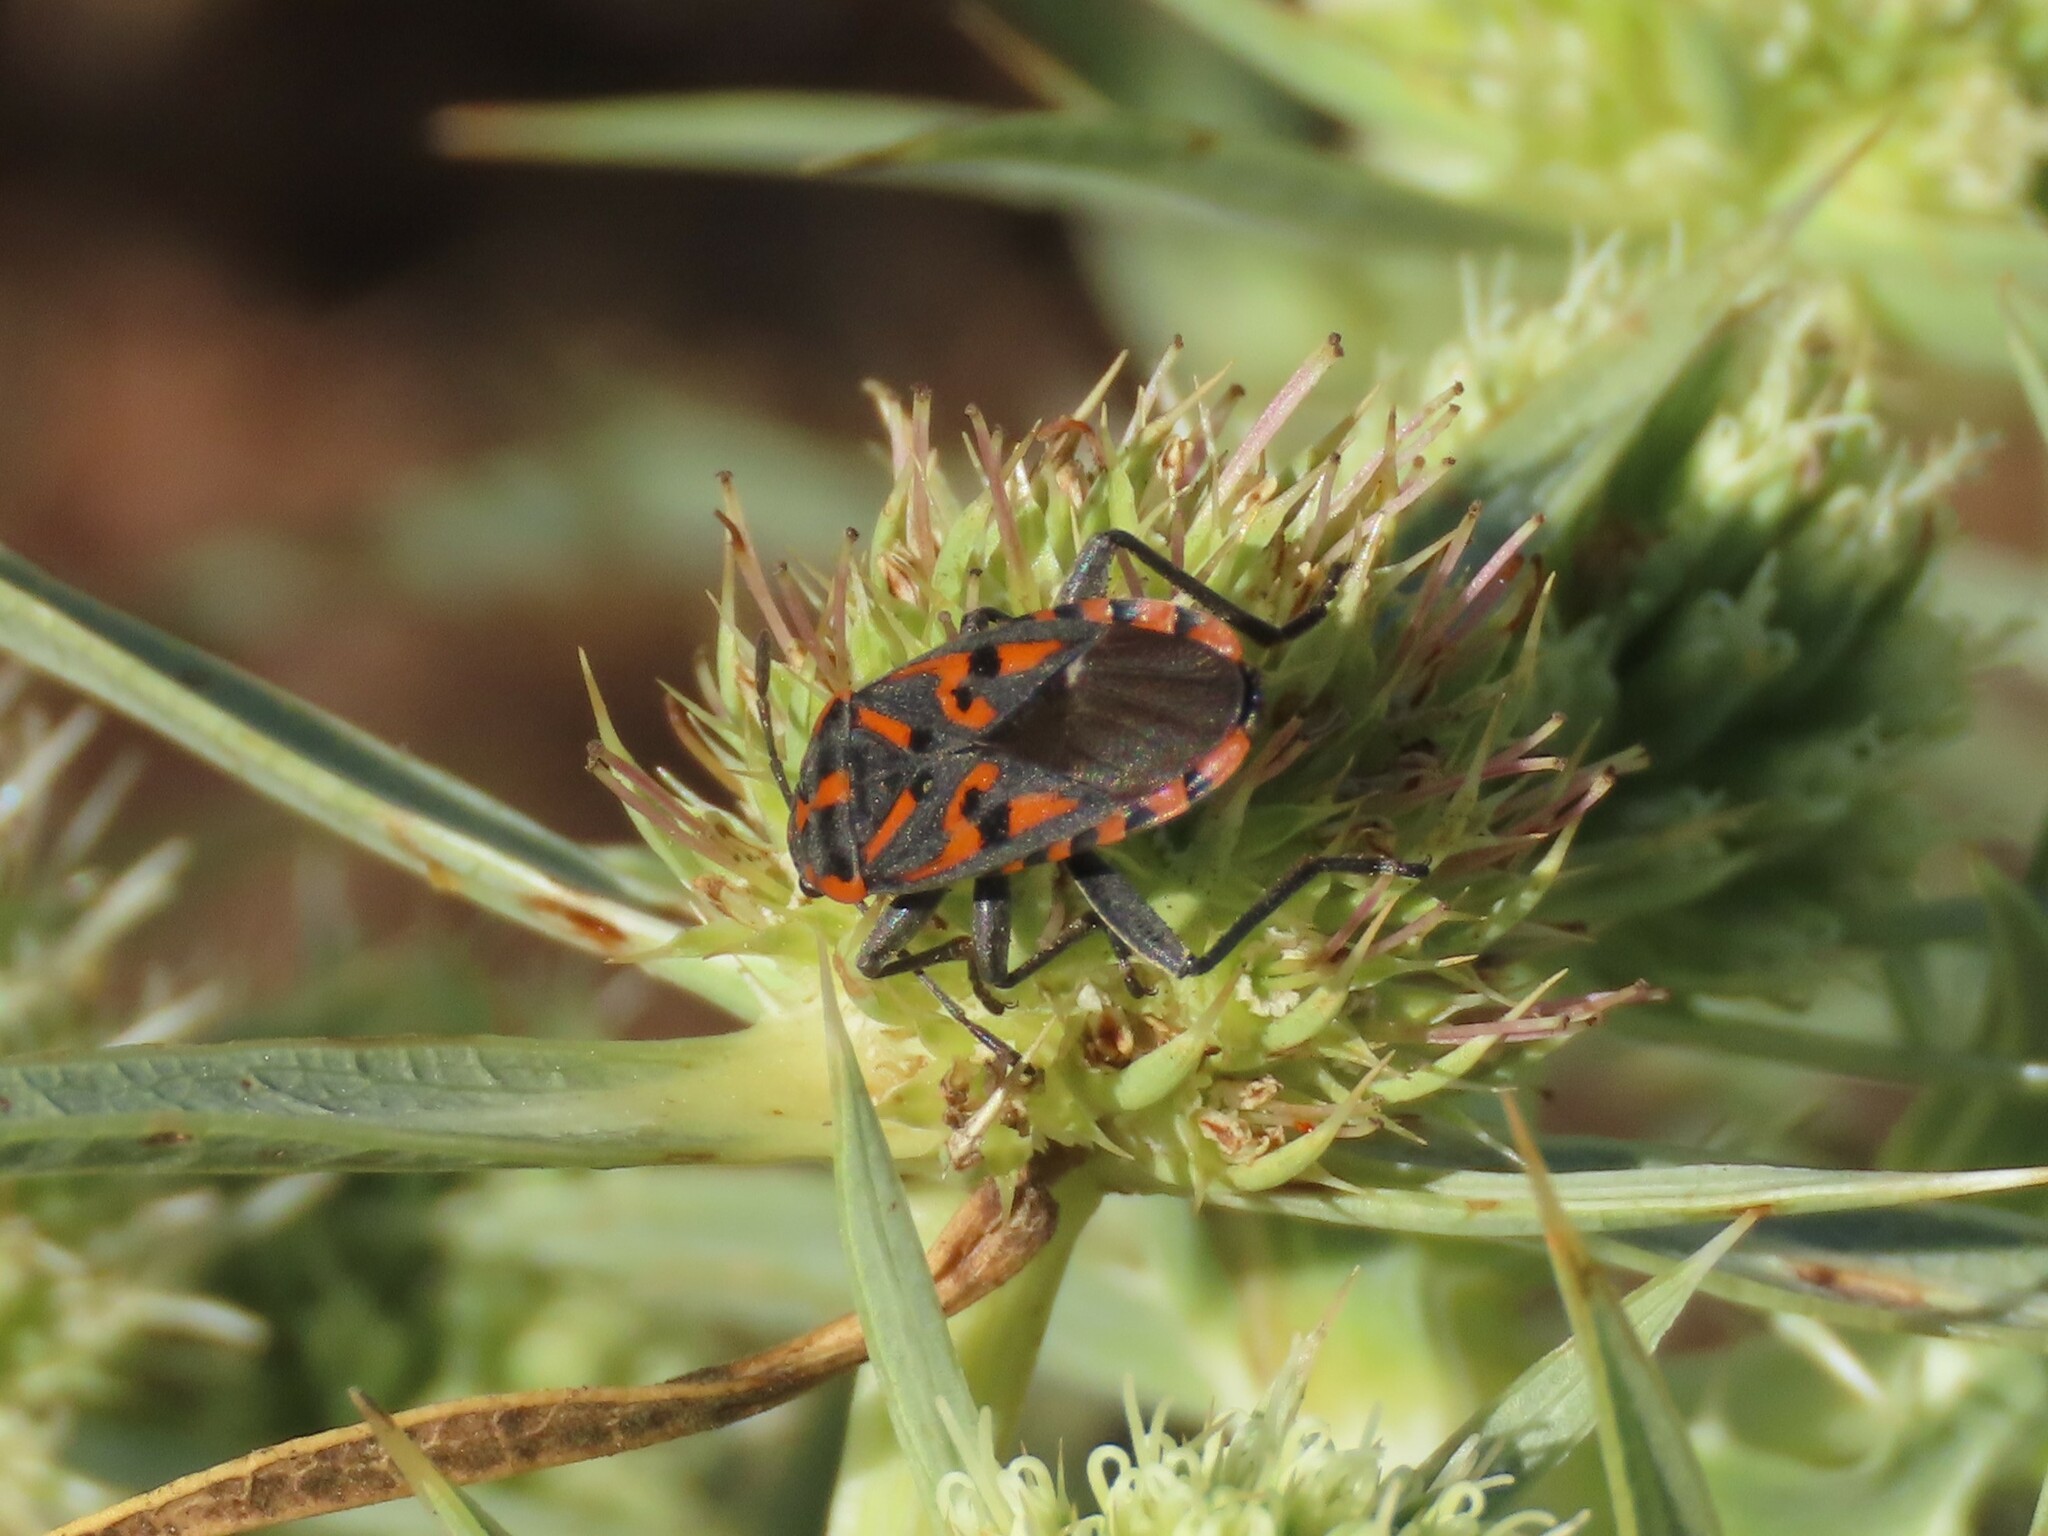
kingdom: Animalia
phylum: Arthropoda
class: Insecta
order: Hemiptera
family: Lygaeidae
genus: Spilostethus
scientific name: Spilostethus saxatilis
